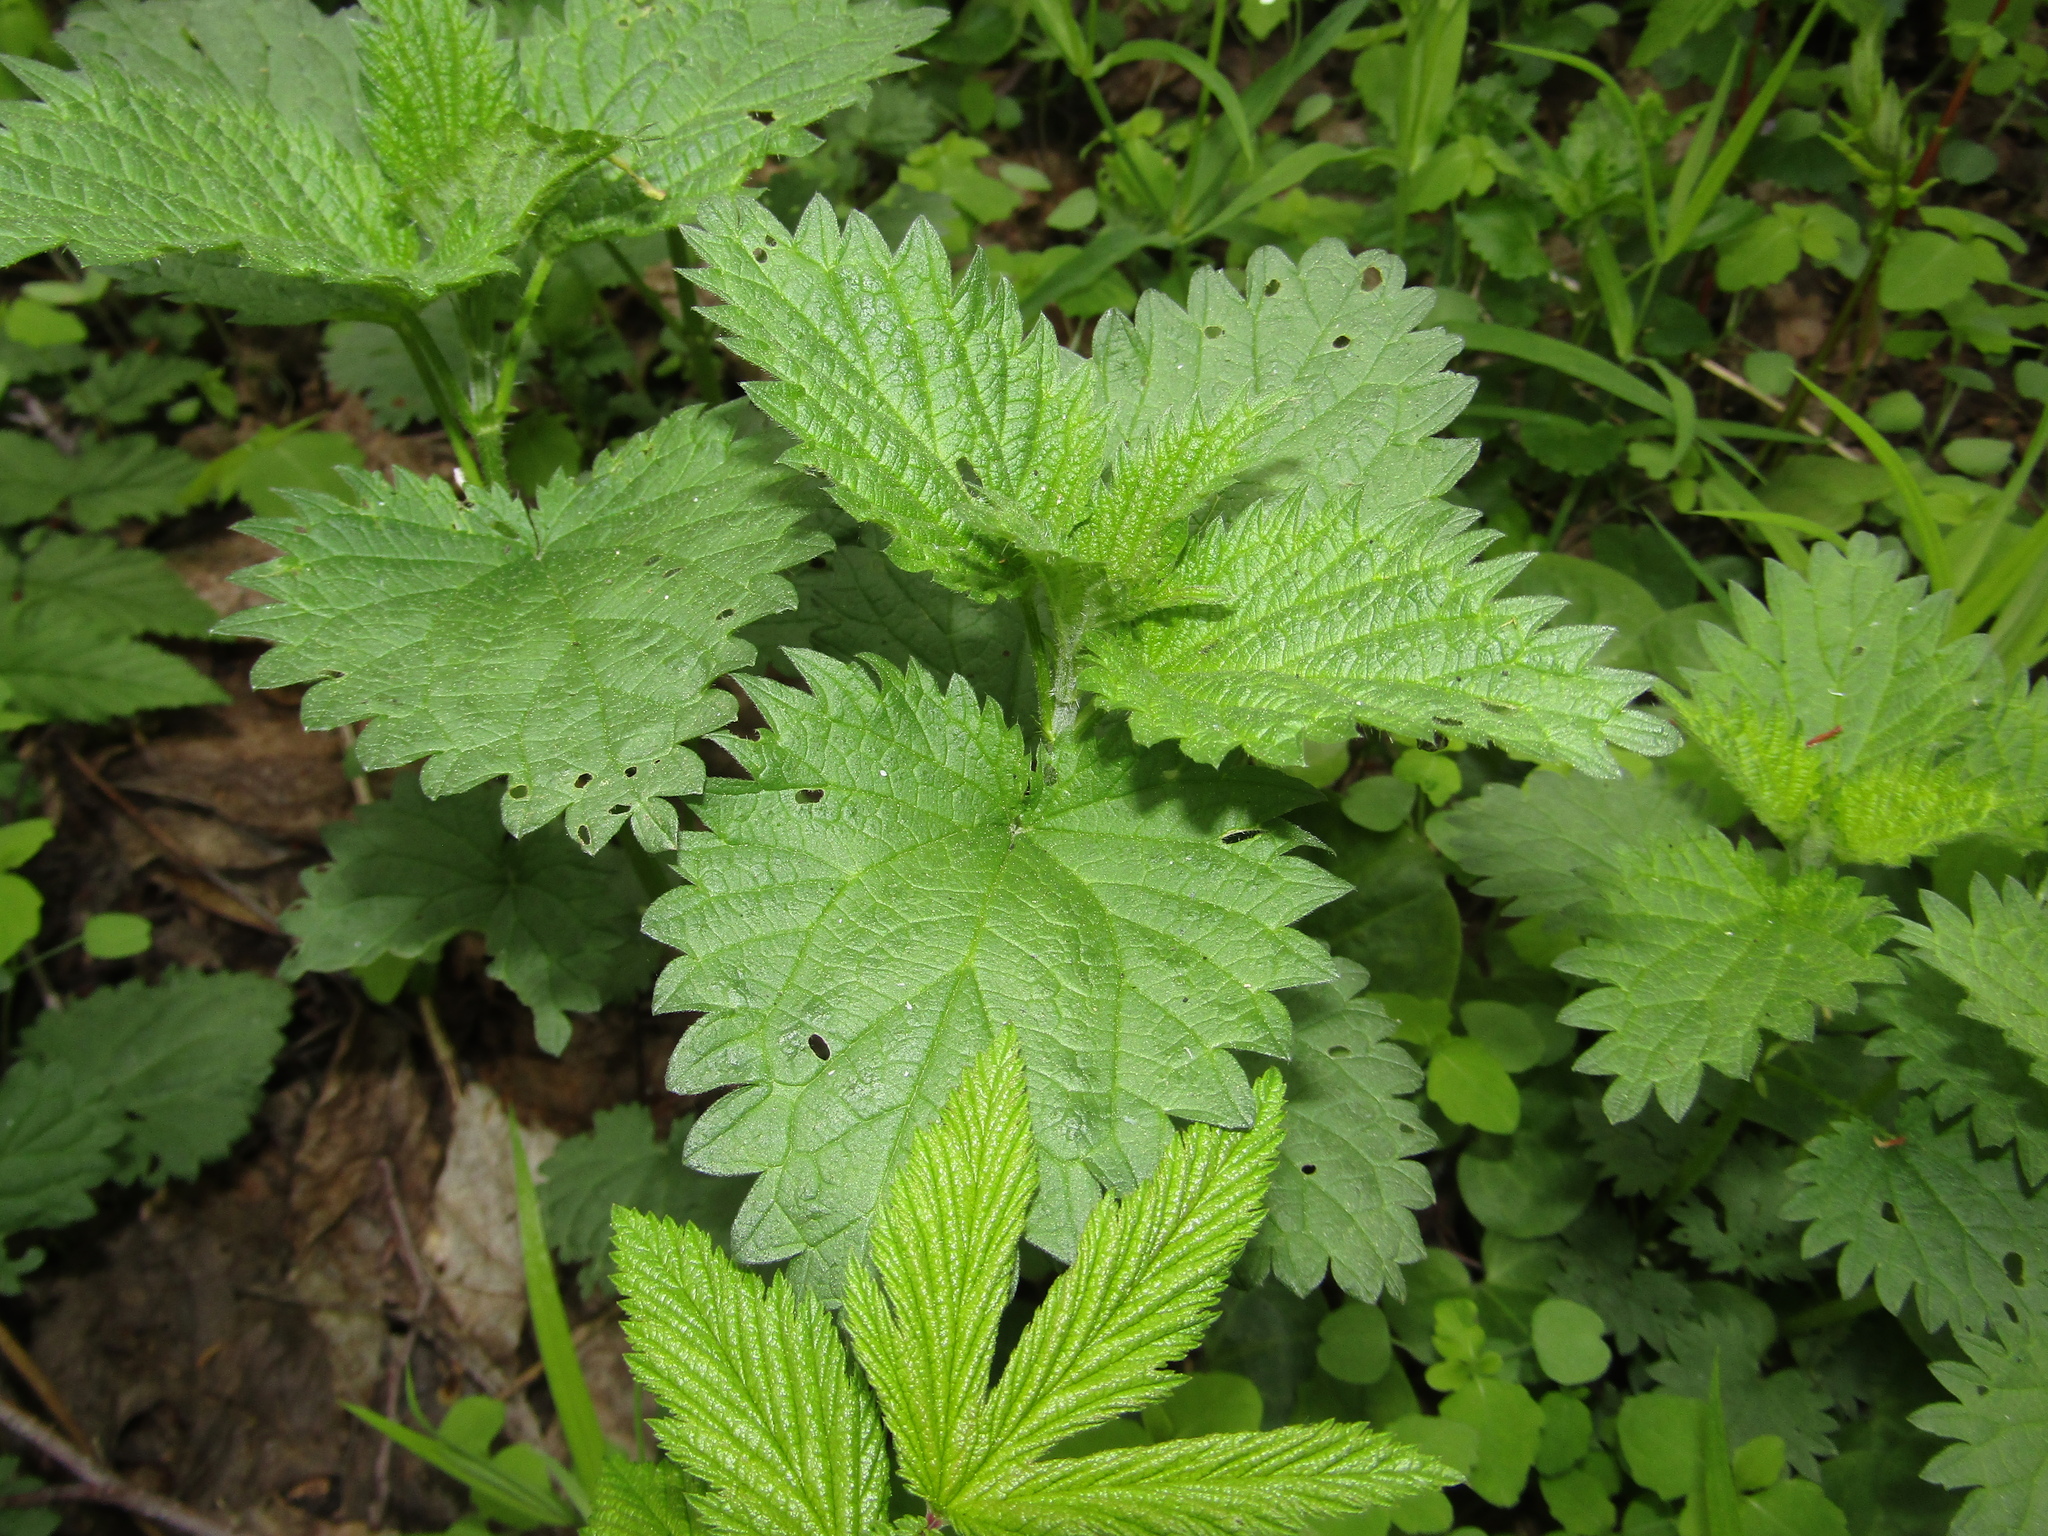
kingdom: Plantae
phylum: Tracheophyta
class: Magnoliopsida
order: Rosales
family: Urticaceae
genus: Urtica
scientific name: Urtica dioica
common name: Common nettle
